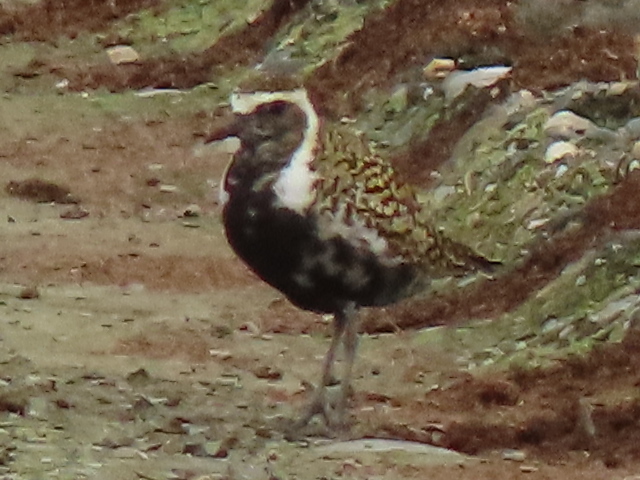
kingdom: Animalia
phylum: Chordata
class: Aves
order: Charadriiformes
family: Charadriidae
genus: Pluvialis
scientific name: Pluvialis fulva
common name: Pacific golden plover
